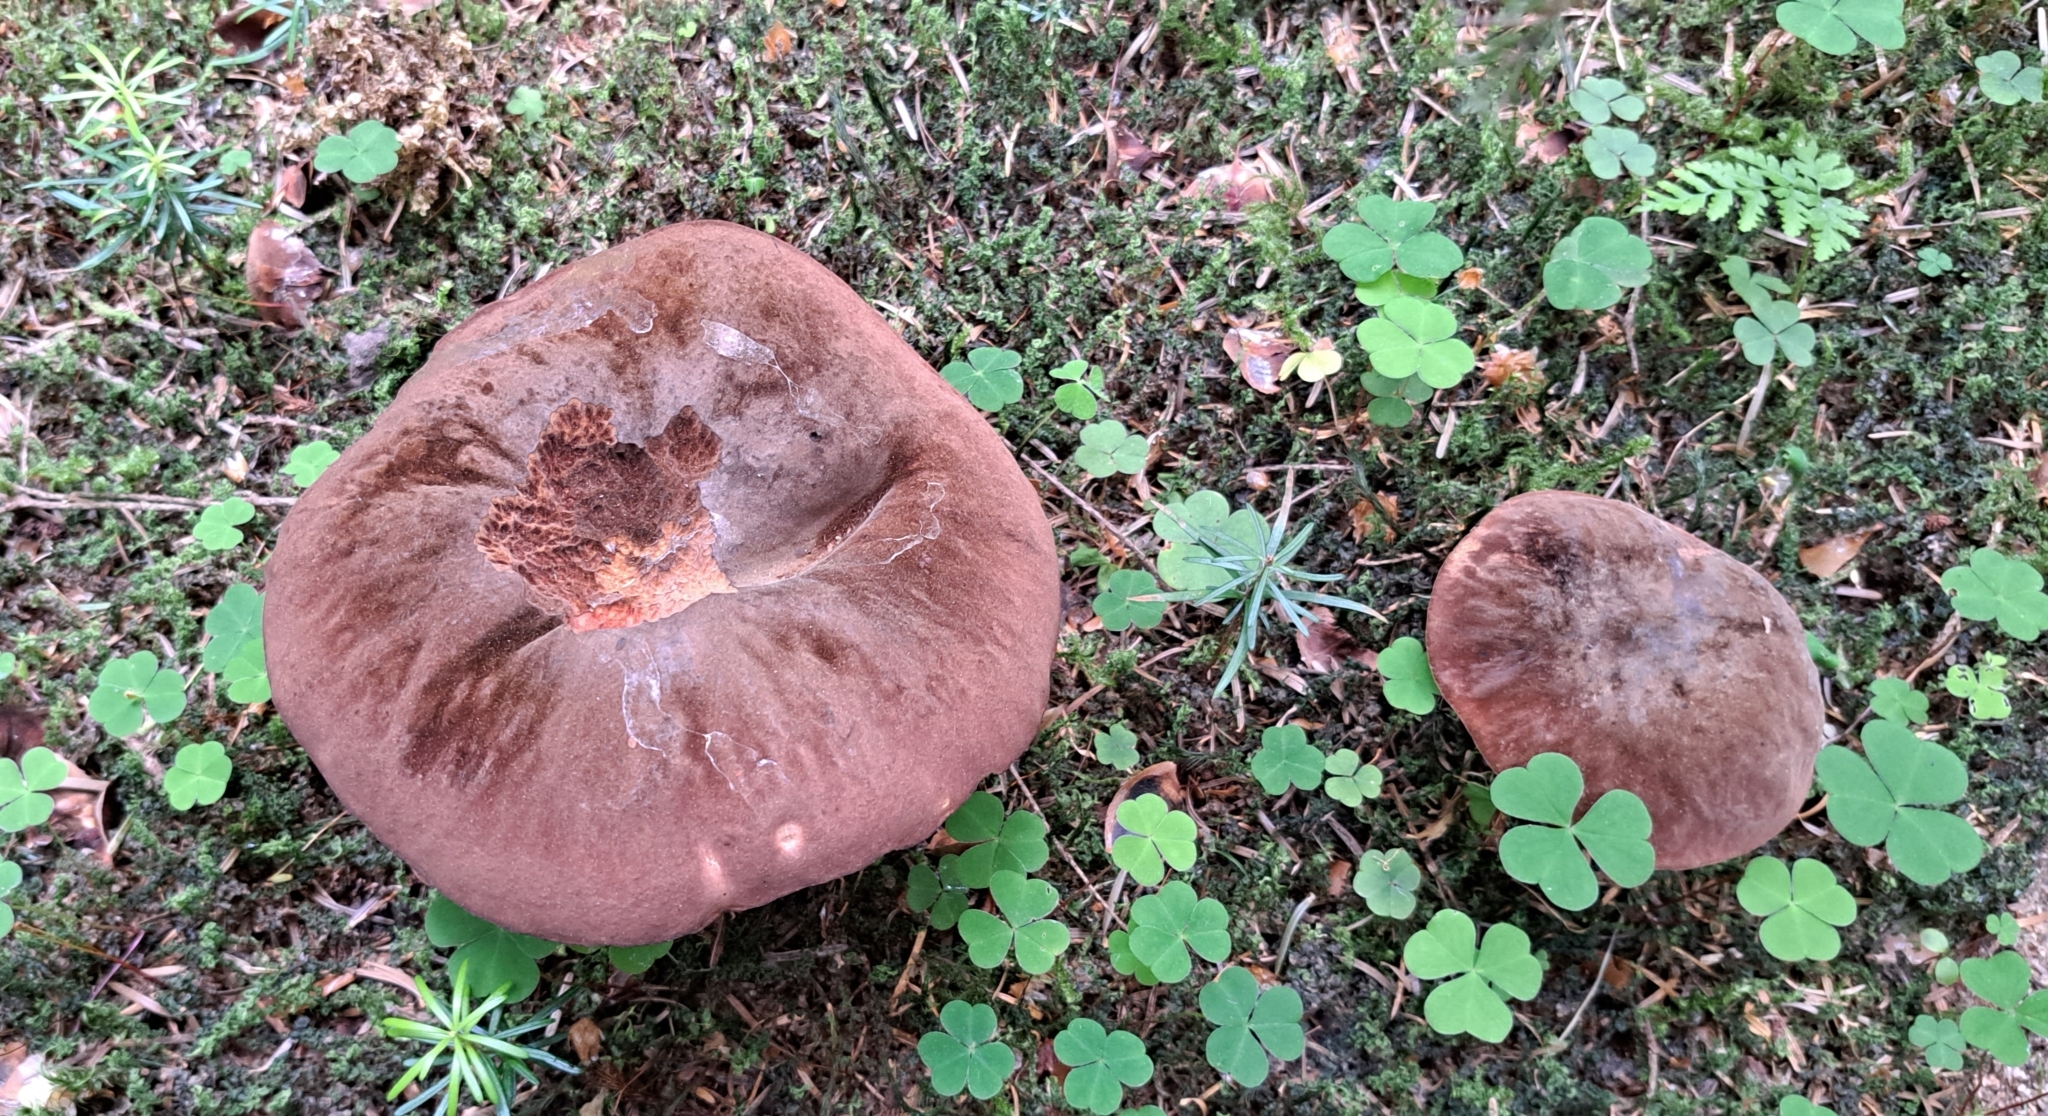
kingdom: Fungi
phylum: Basidiomycota
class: Agaricomycetes
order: Boletales
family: Boletaceae
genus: Neoboletus
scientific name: Neoboletus erythropus
